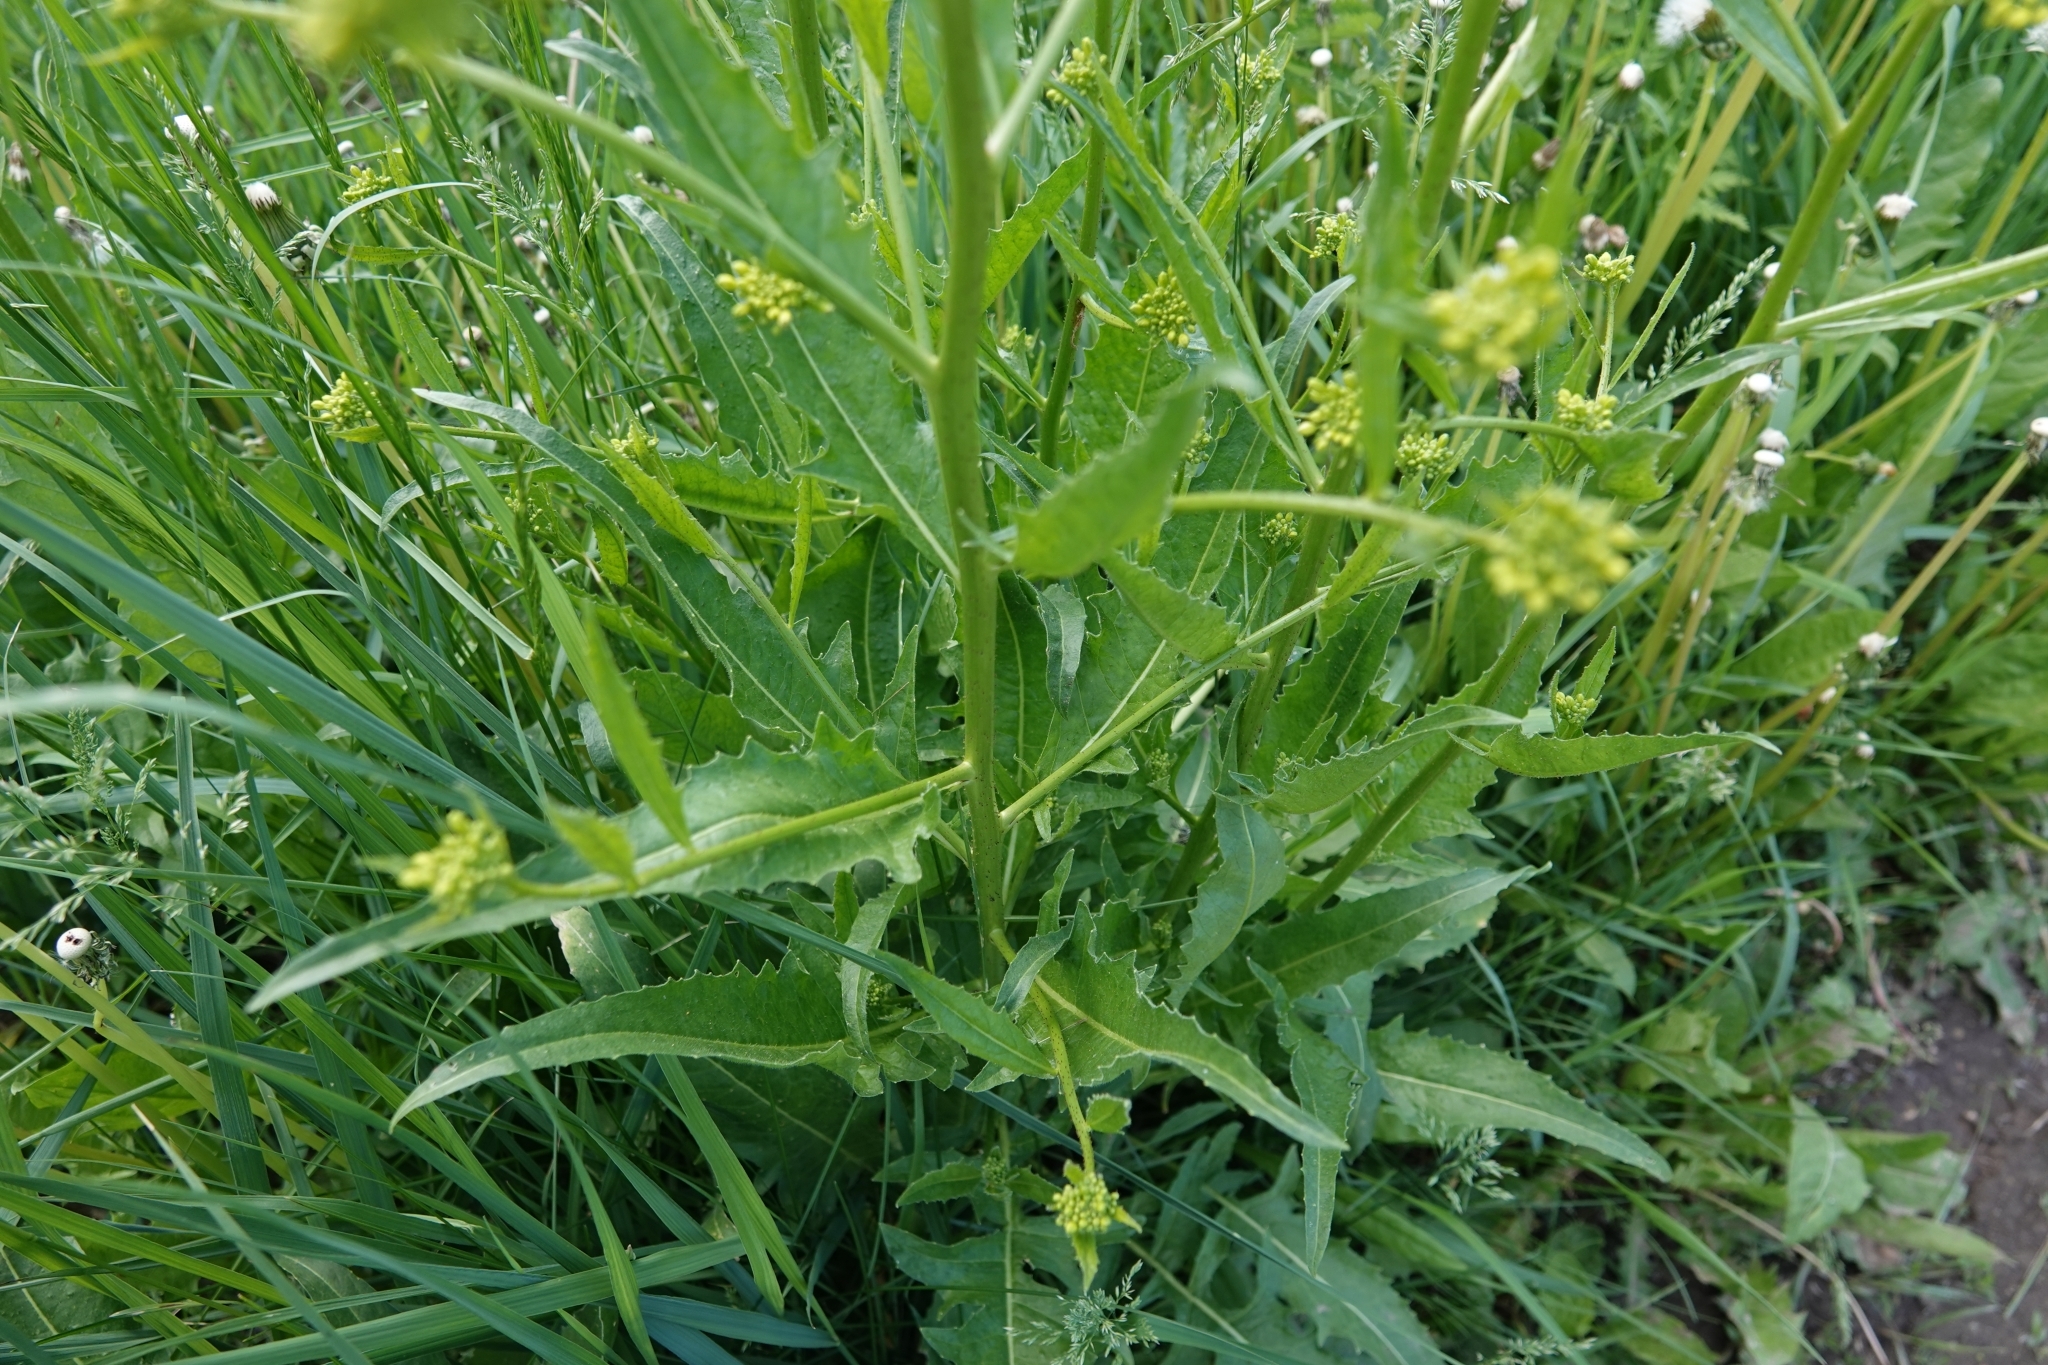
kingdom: Plantae
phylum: Tracheophyta
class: Magnoliopsida
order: Brassicales
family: Brassicaceae
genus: Bunias
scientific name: Bunias orientalis
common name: Warty-cabbage
